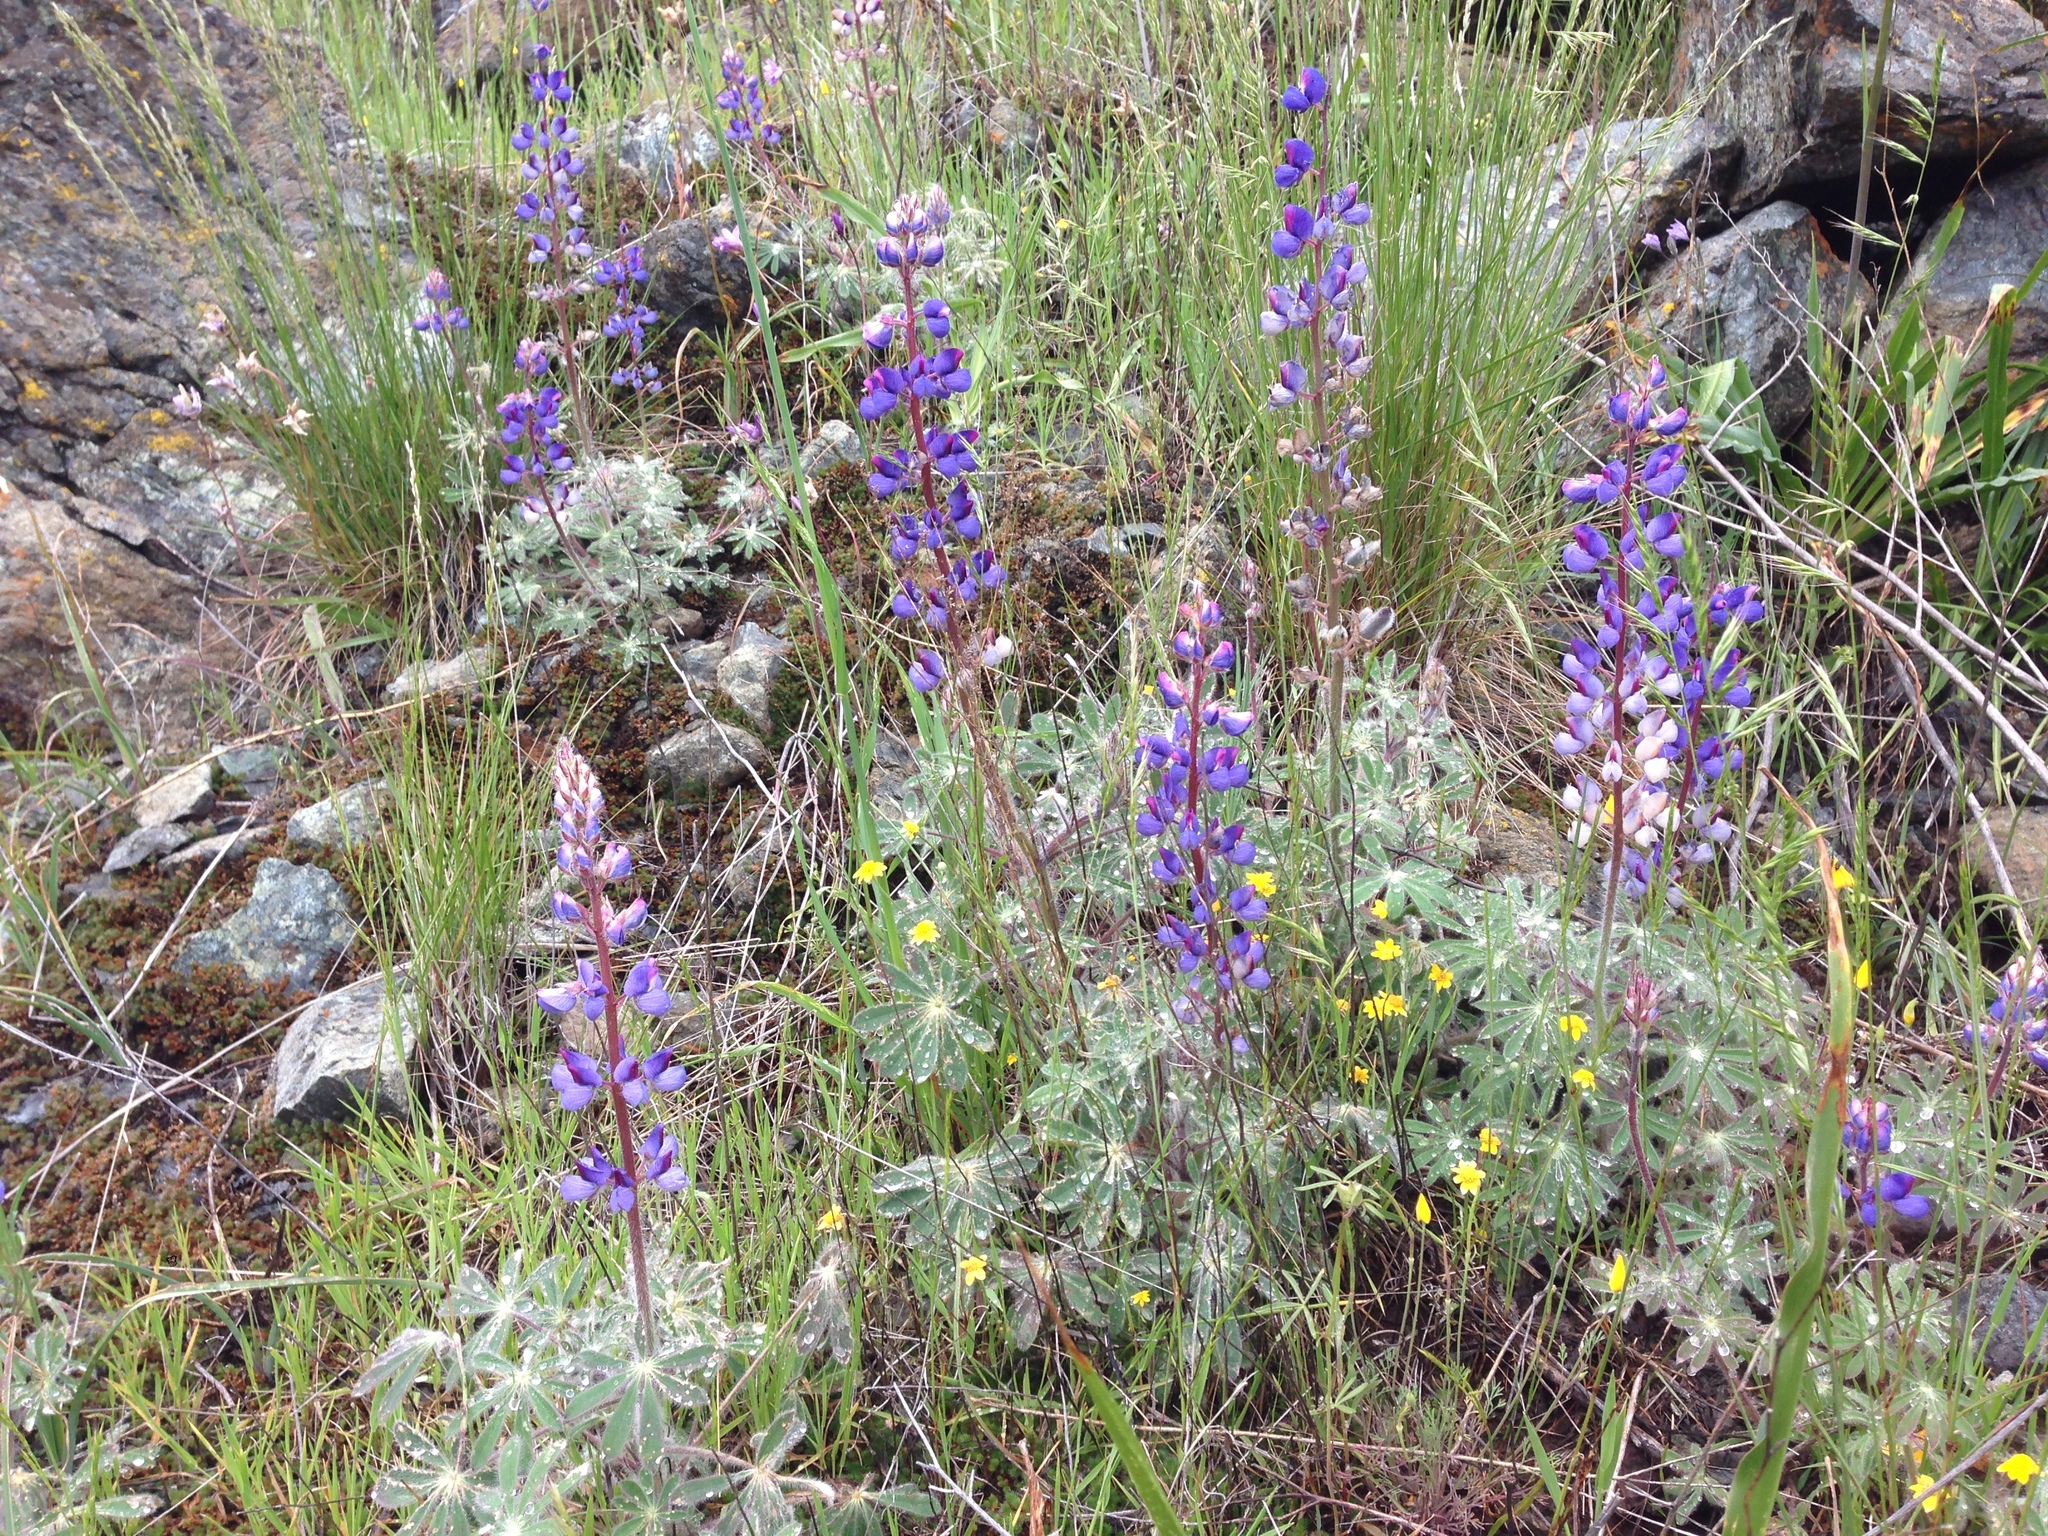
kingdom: Plantae
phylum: Tracheophyta
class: Magnoliopsida
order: Fabales
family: Fabaceae
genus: Lupinus
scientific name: Lupinus spectabilis
